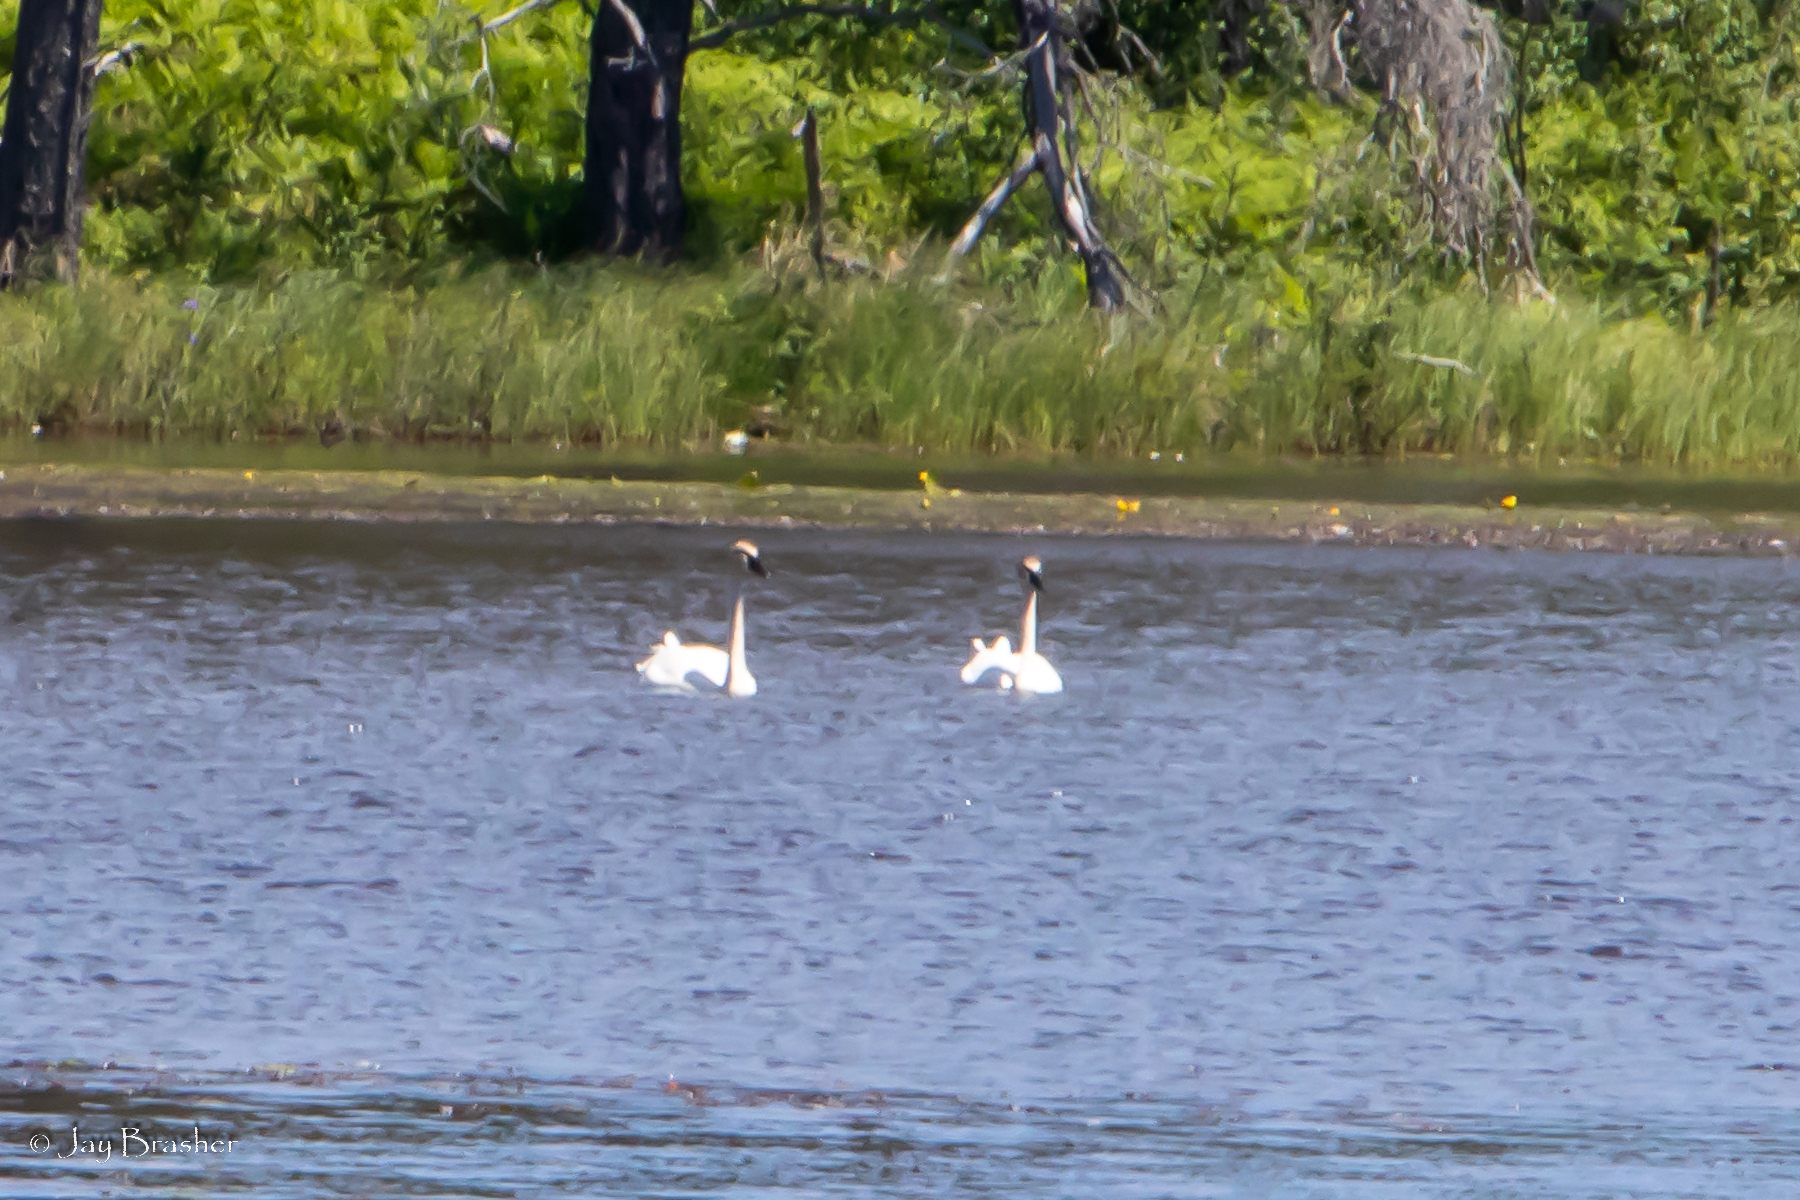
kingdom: Animalia
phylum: Chordata
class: Aves
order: Anseriformes
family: Anatidae
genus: Cygnus
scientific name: Cygnus buccinator
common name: Trumpeter swan
